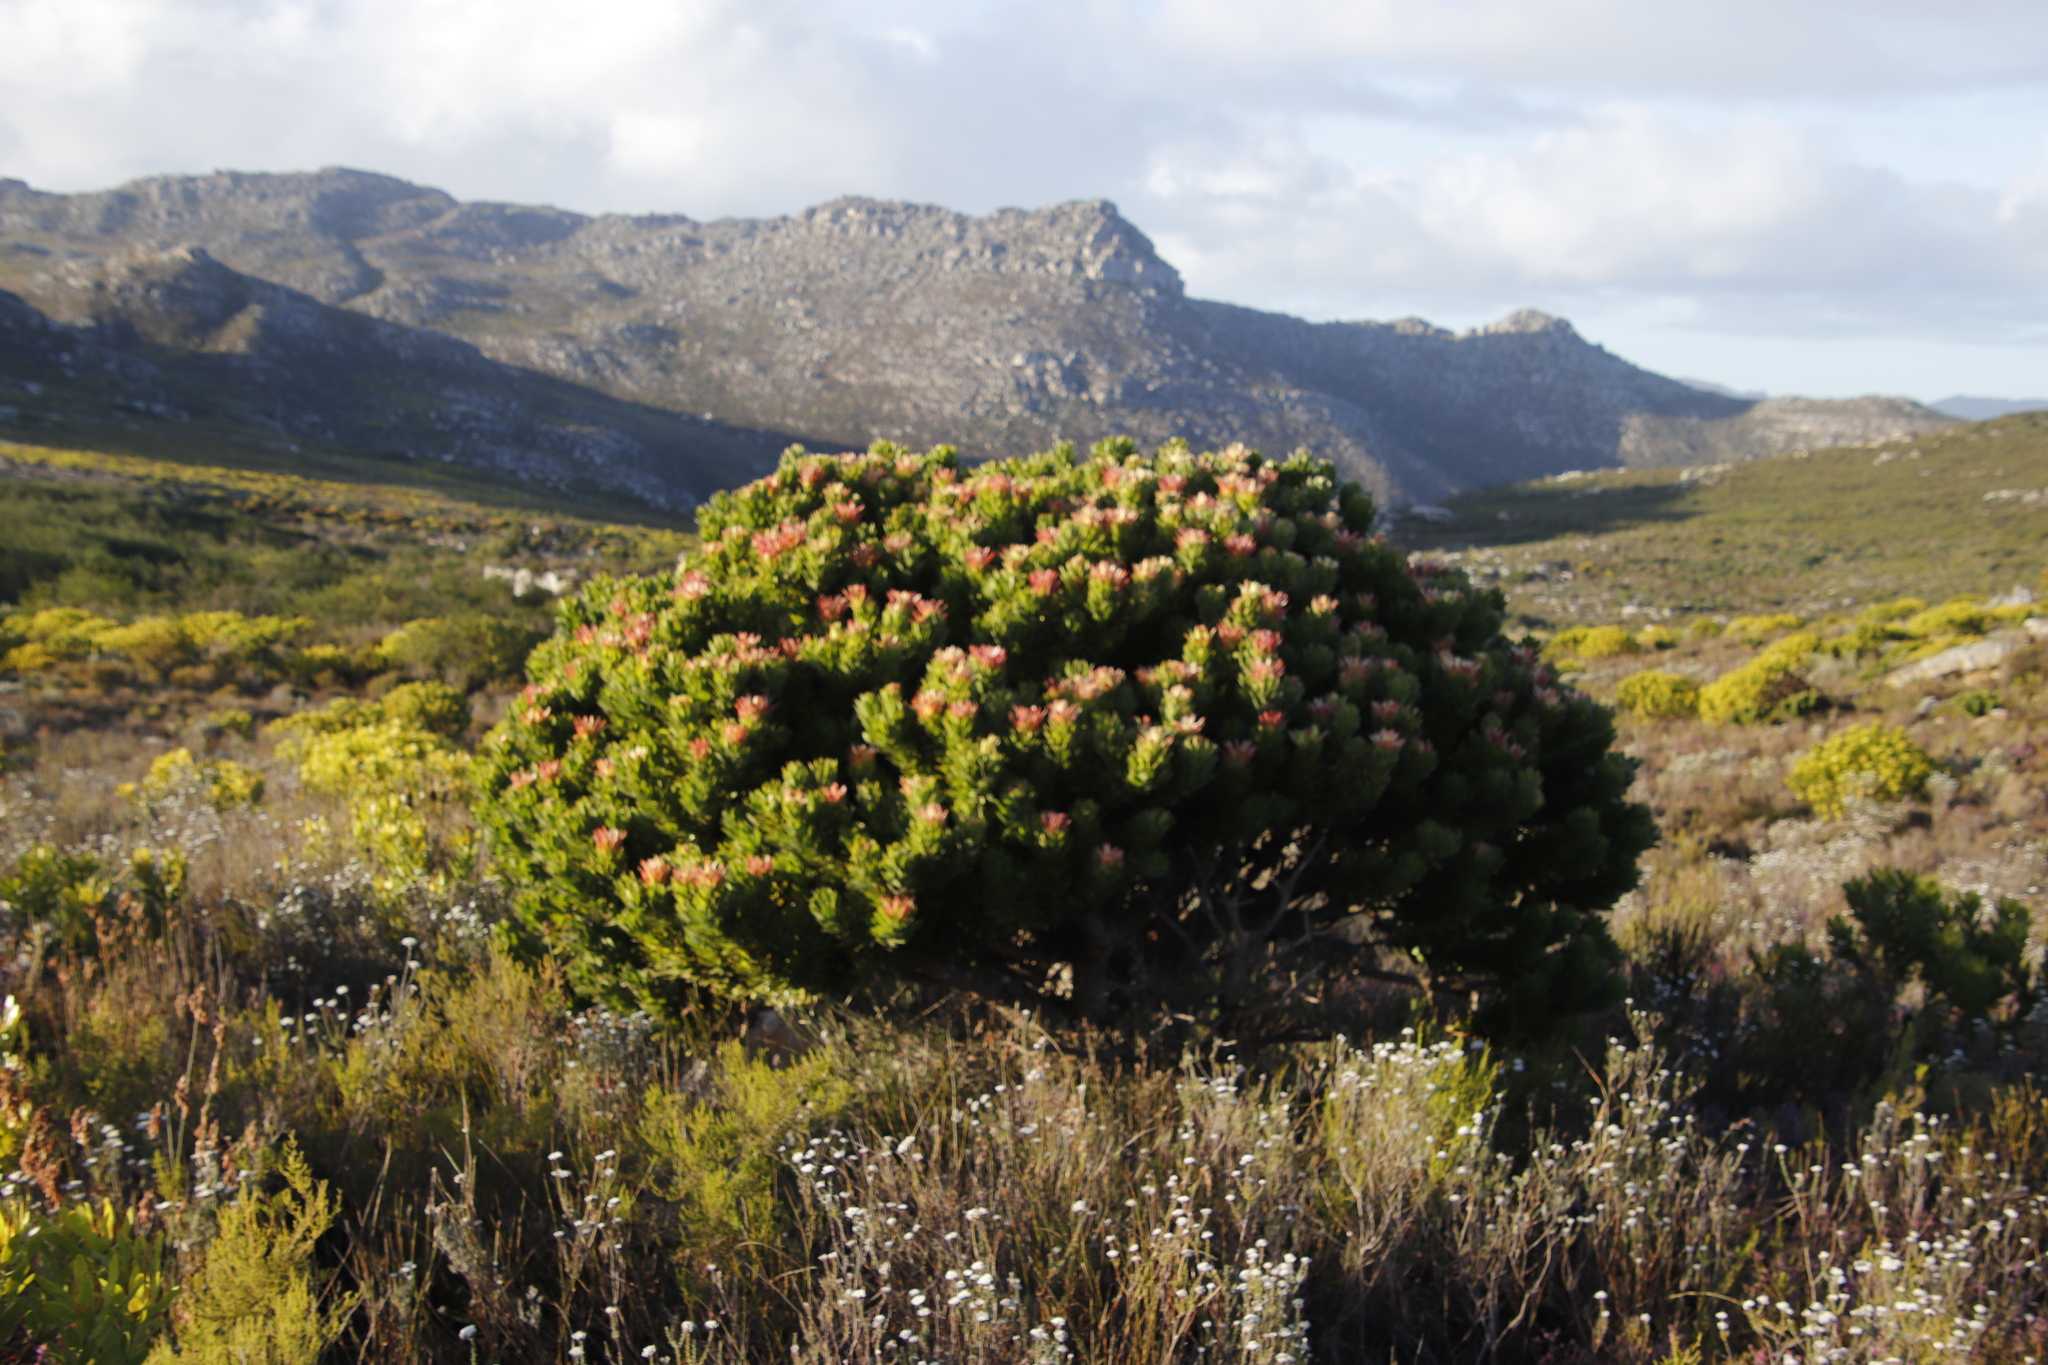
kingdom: Plantae
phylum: Tracheophyta
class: Magnoliopsida
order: Proteales
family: Proteaceae
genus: Mimetes
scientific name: Mimetes fimbriifolius
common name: Fringed bottlebrush
